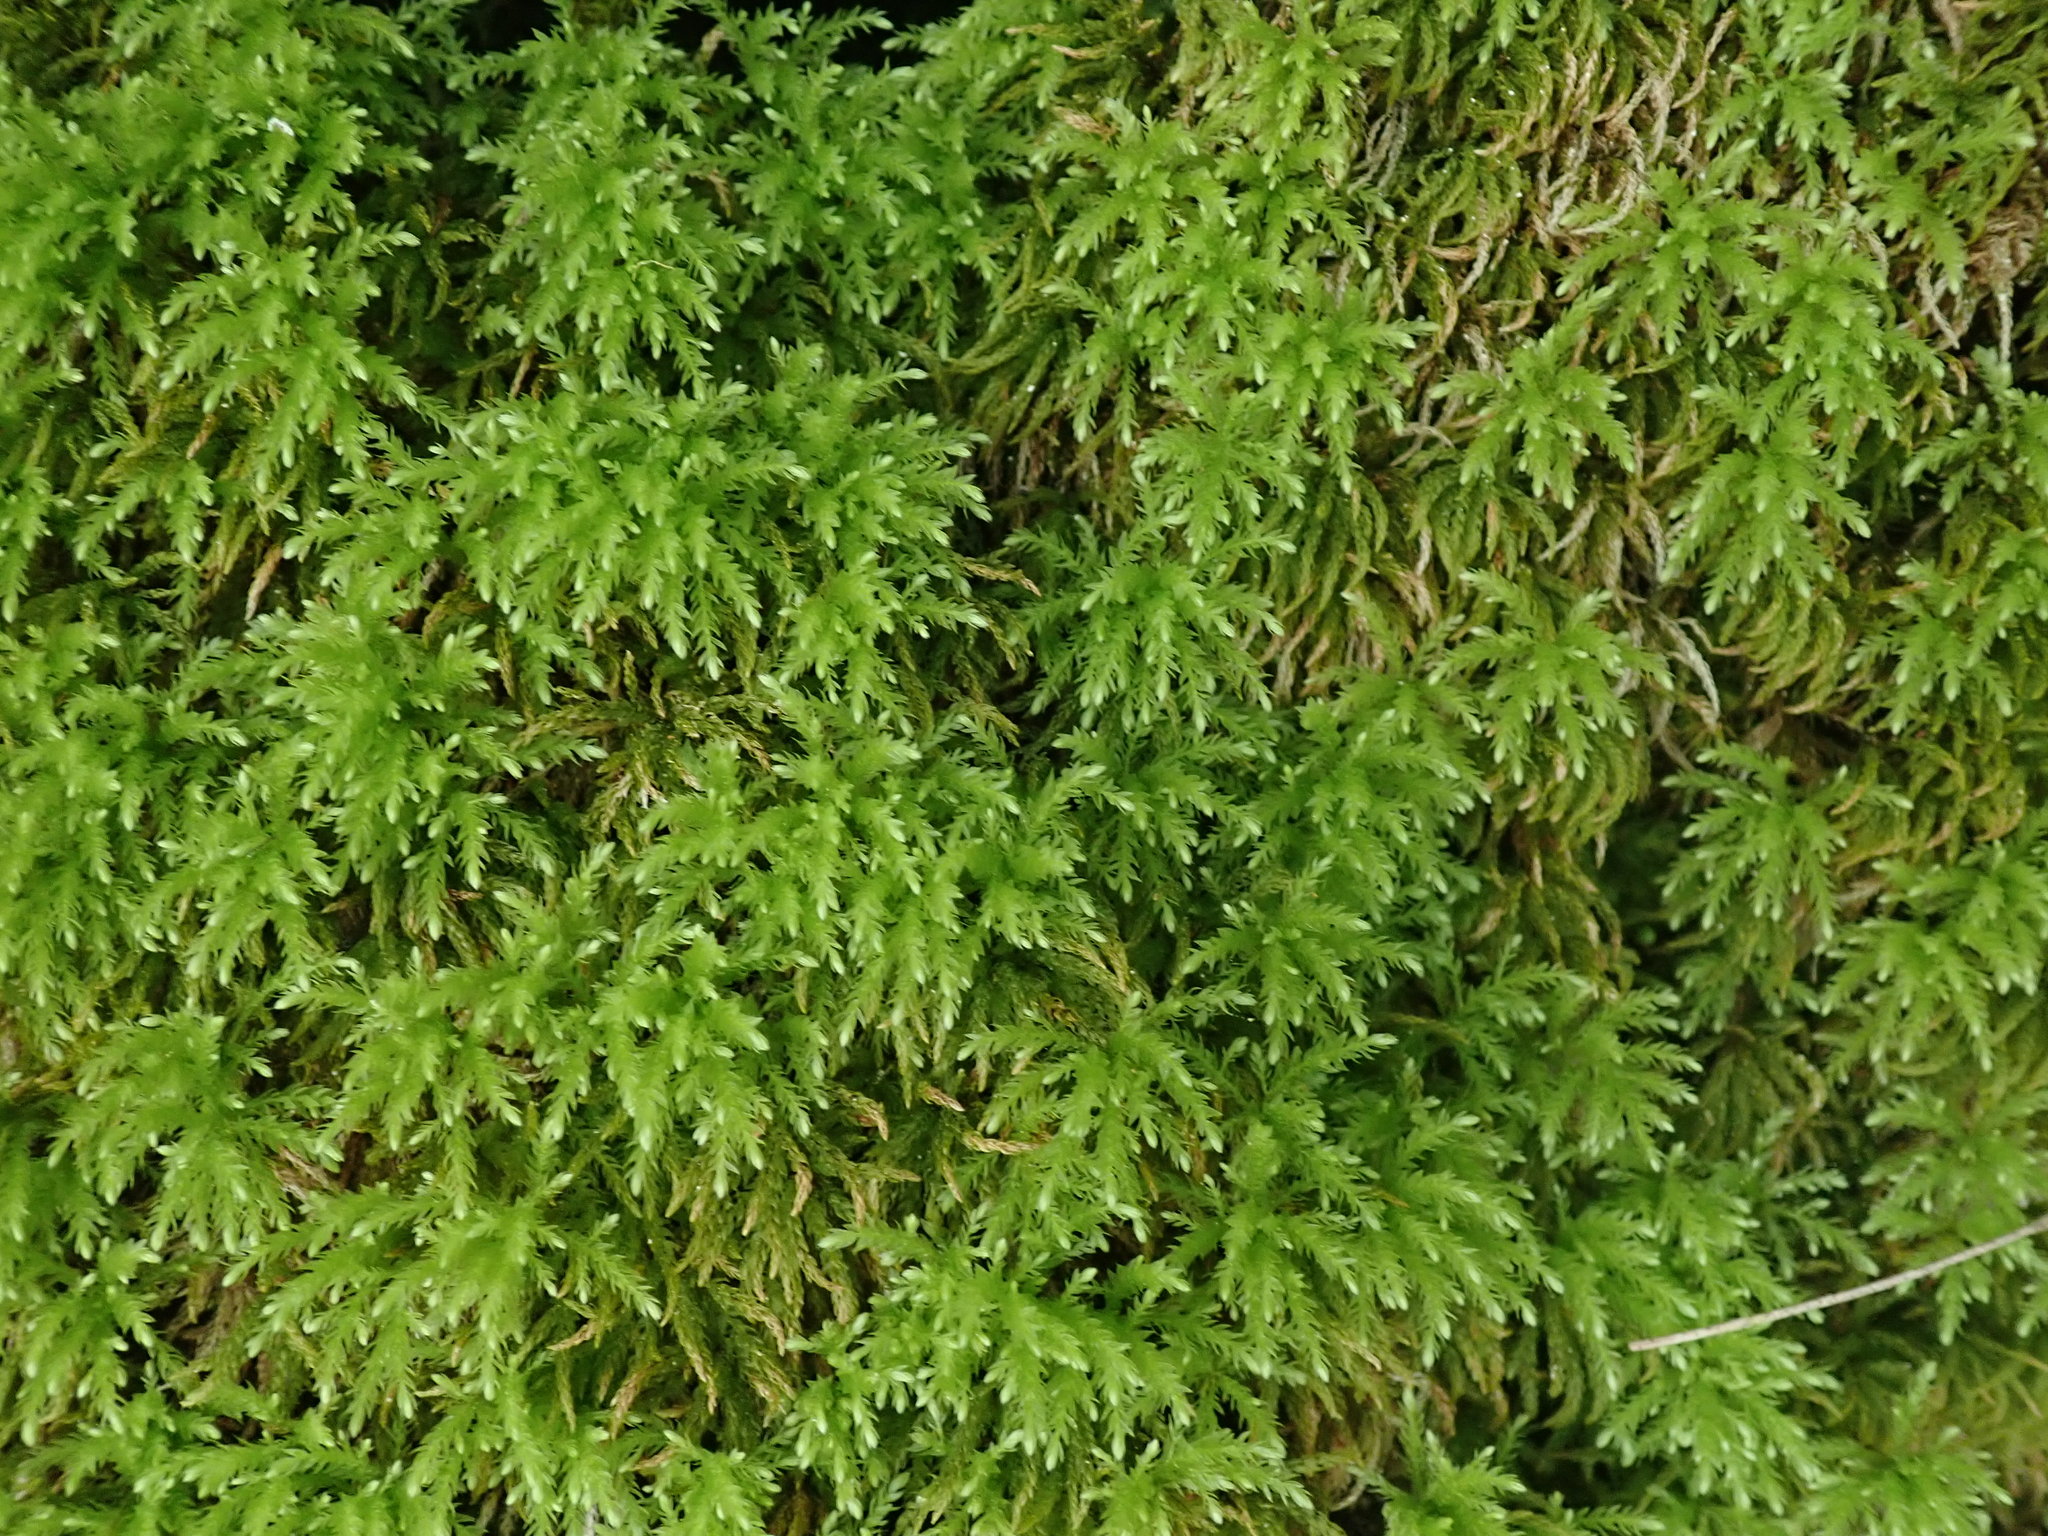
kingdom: Plantae
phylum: Bryophyta
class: Bryopsida
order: Bryales
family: Mniaceae
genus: Leucolepis
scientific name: Leucolepis acanthoneura
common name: Leucolepis umbrella moss
